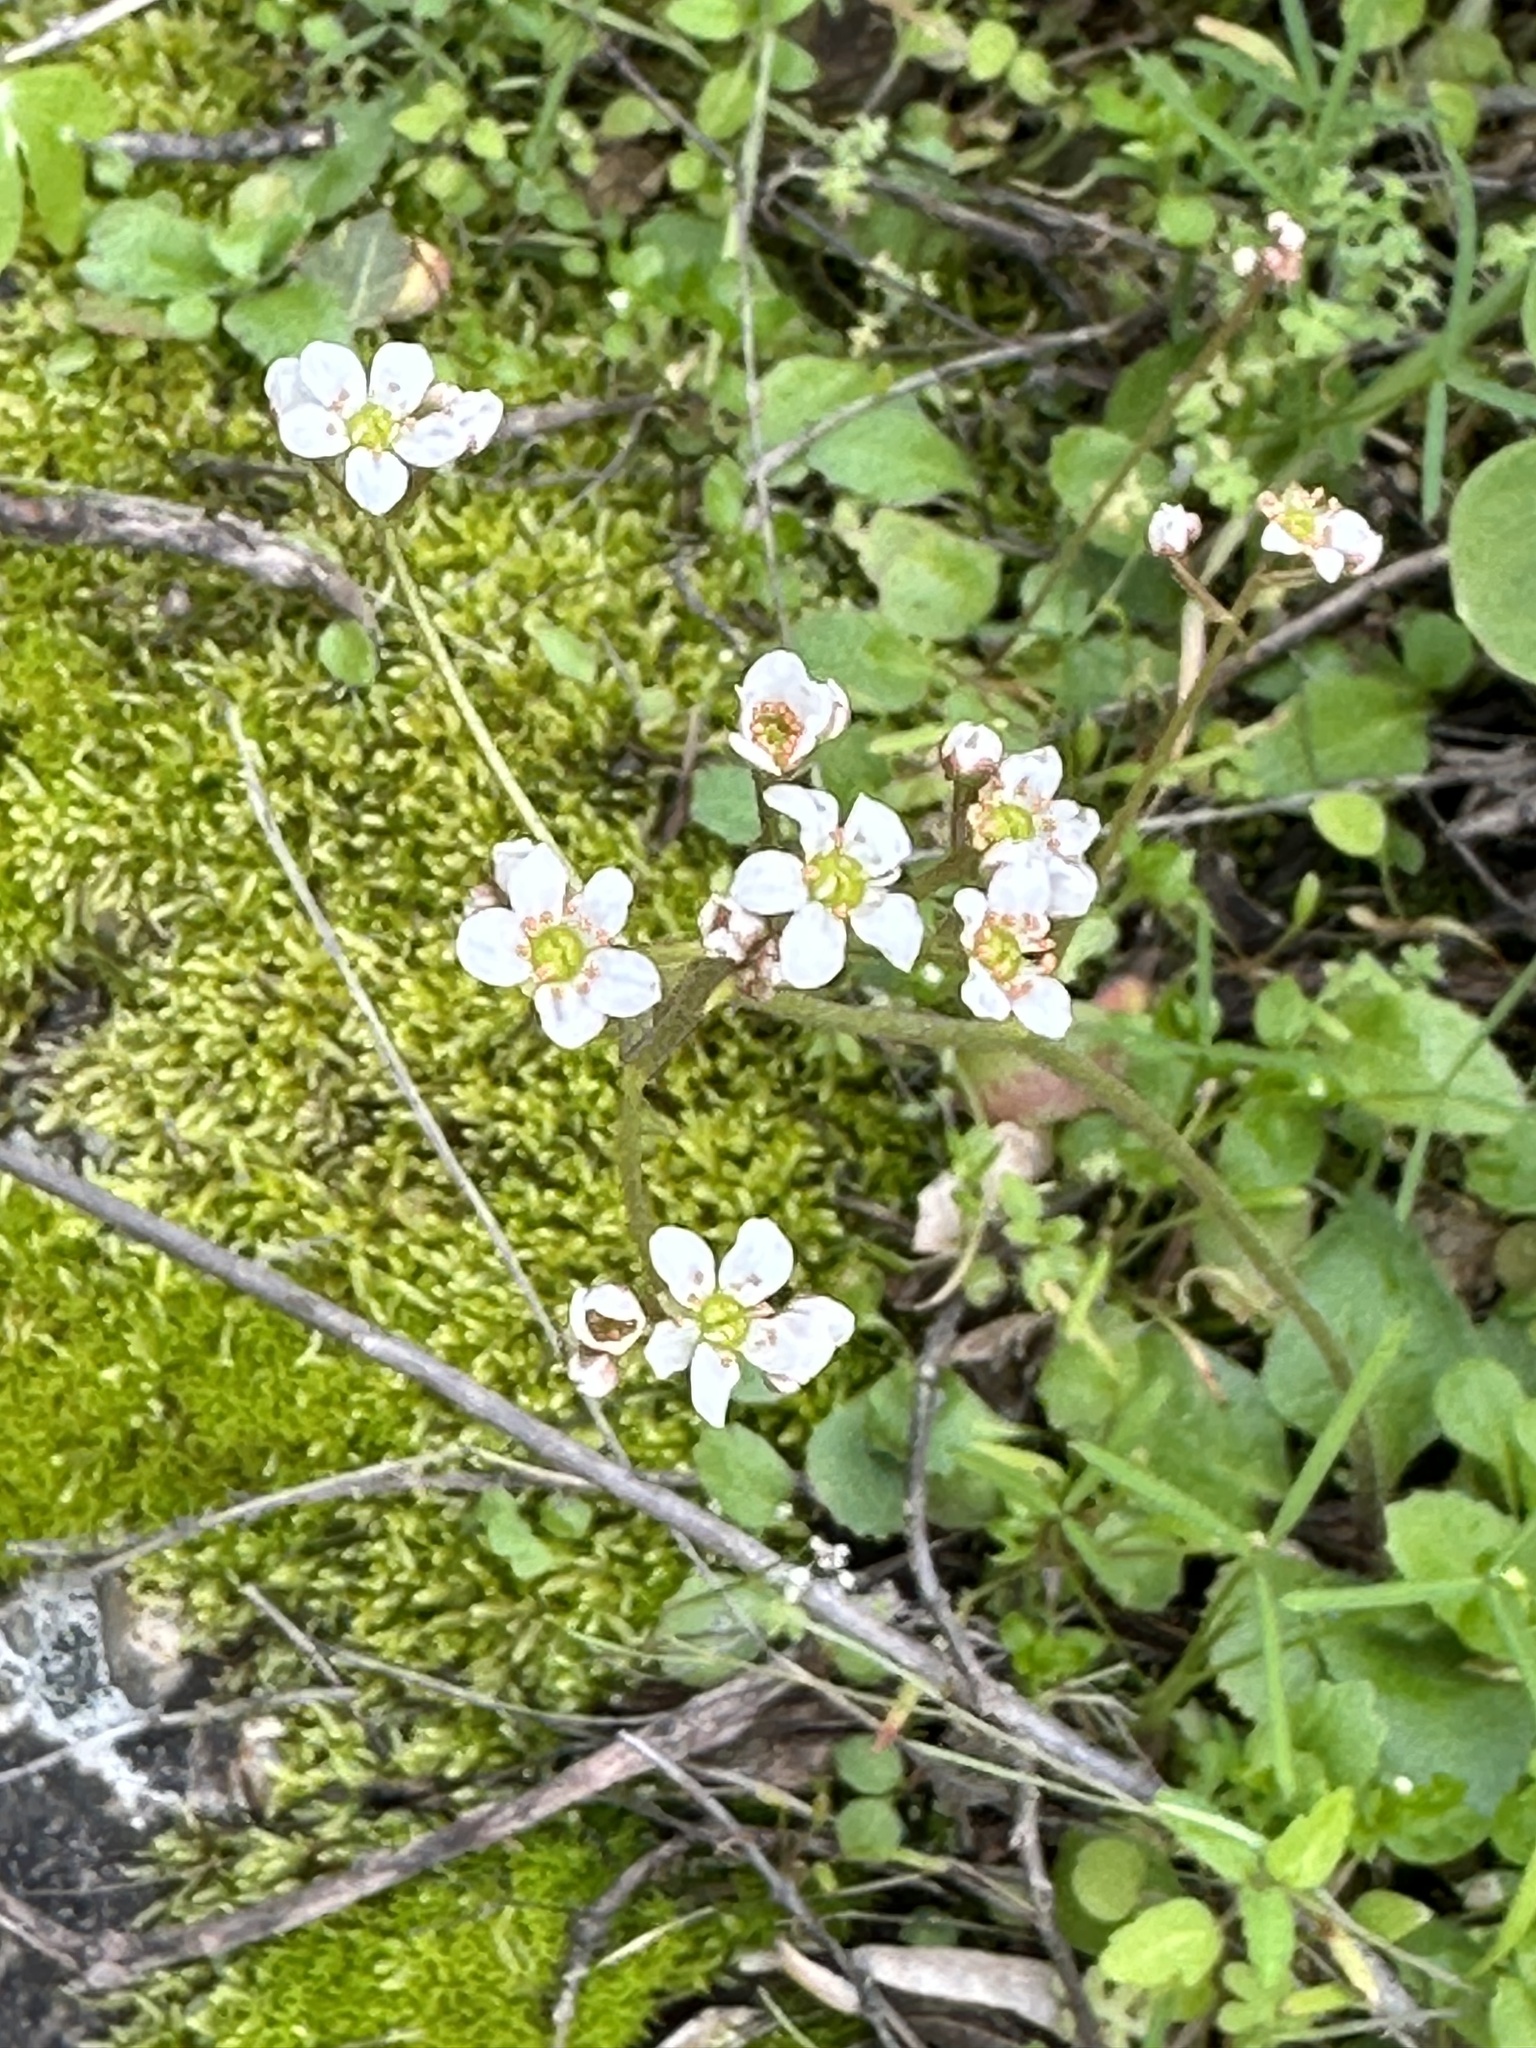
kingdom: Plantae
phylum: Tracheophyta
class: Magnoliopsida
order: Saxifragales
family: Saxifragaceae
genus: Micranthes
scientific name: Micranthes californica
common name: California saxifrage
